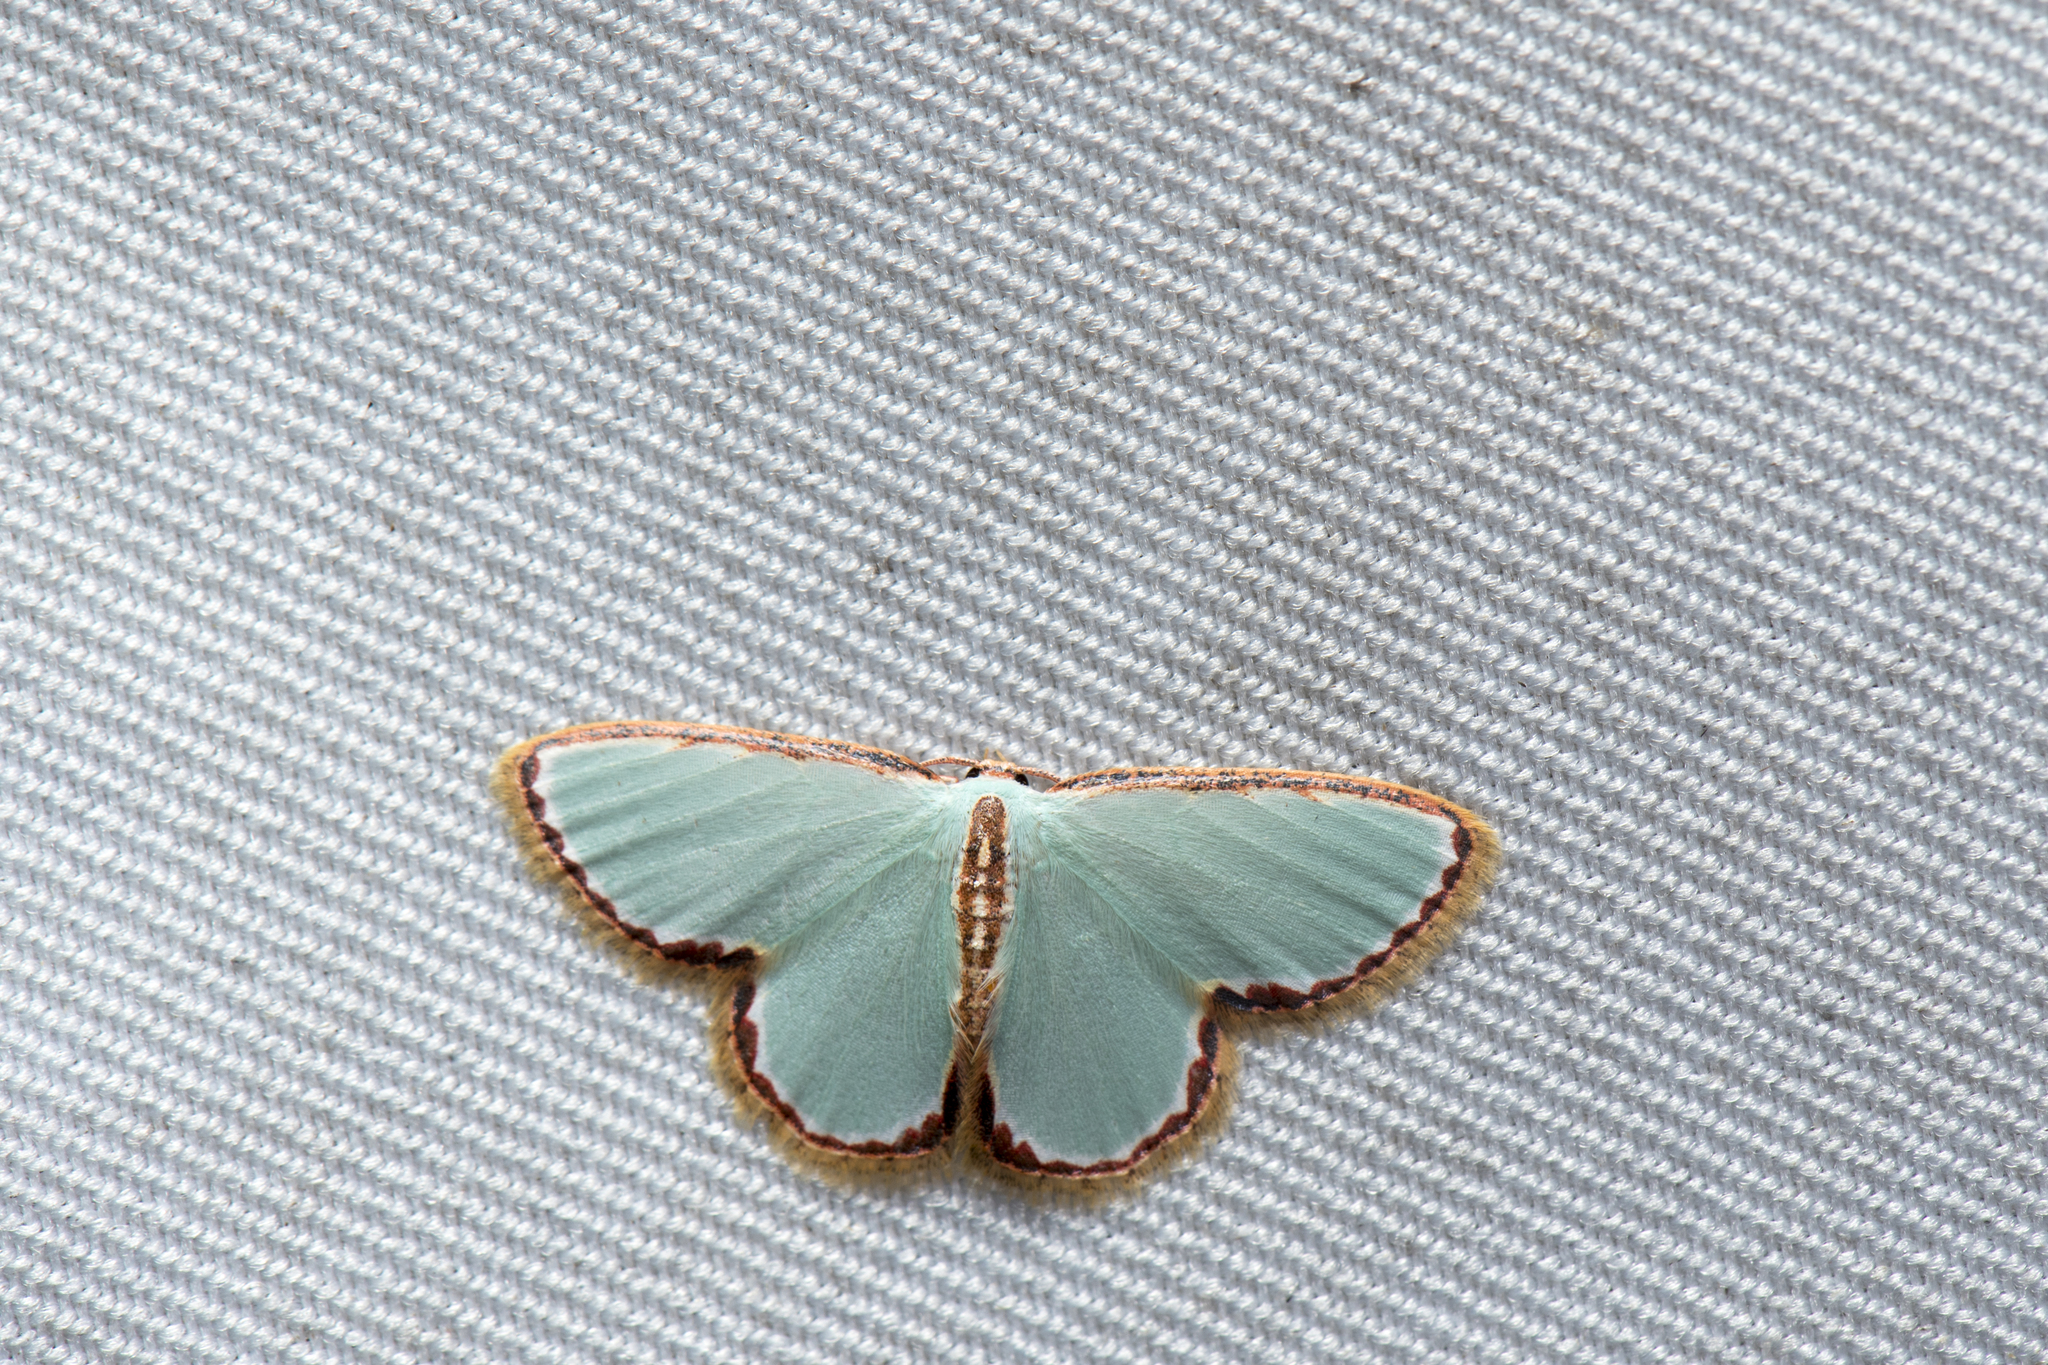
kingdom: Animalia
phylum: Arthropoda
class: Insecta
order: Lepidoptera
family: Geometridae
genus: Comostola
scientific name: Comostola pyrrhogona
